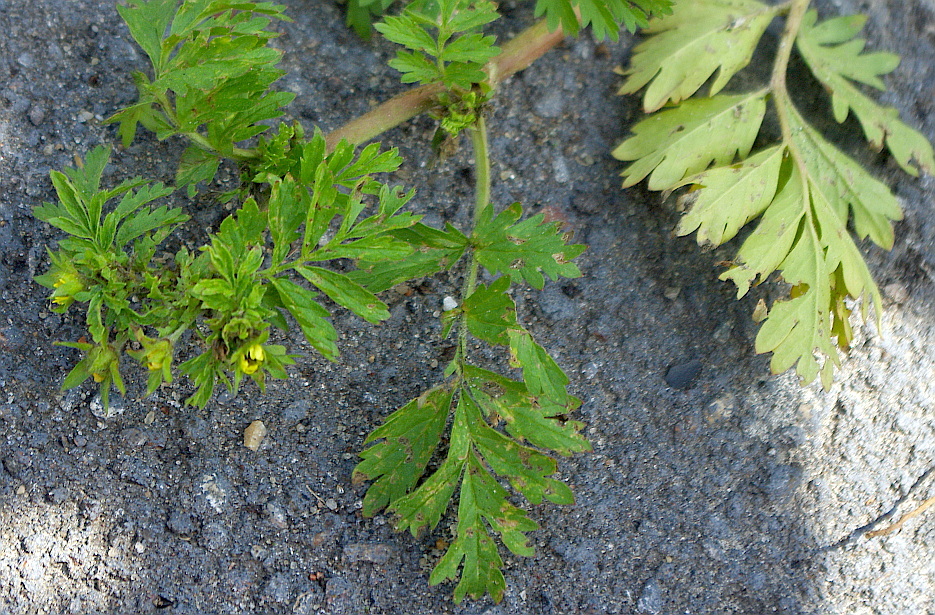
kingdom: Plantae
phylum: Tracheophyta
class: Magnoliopsida
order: Rosales
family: Rosaceae
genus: Potentilla
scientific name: Potentilla supina
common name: Prostrate cinquefoil
